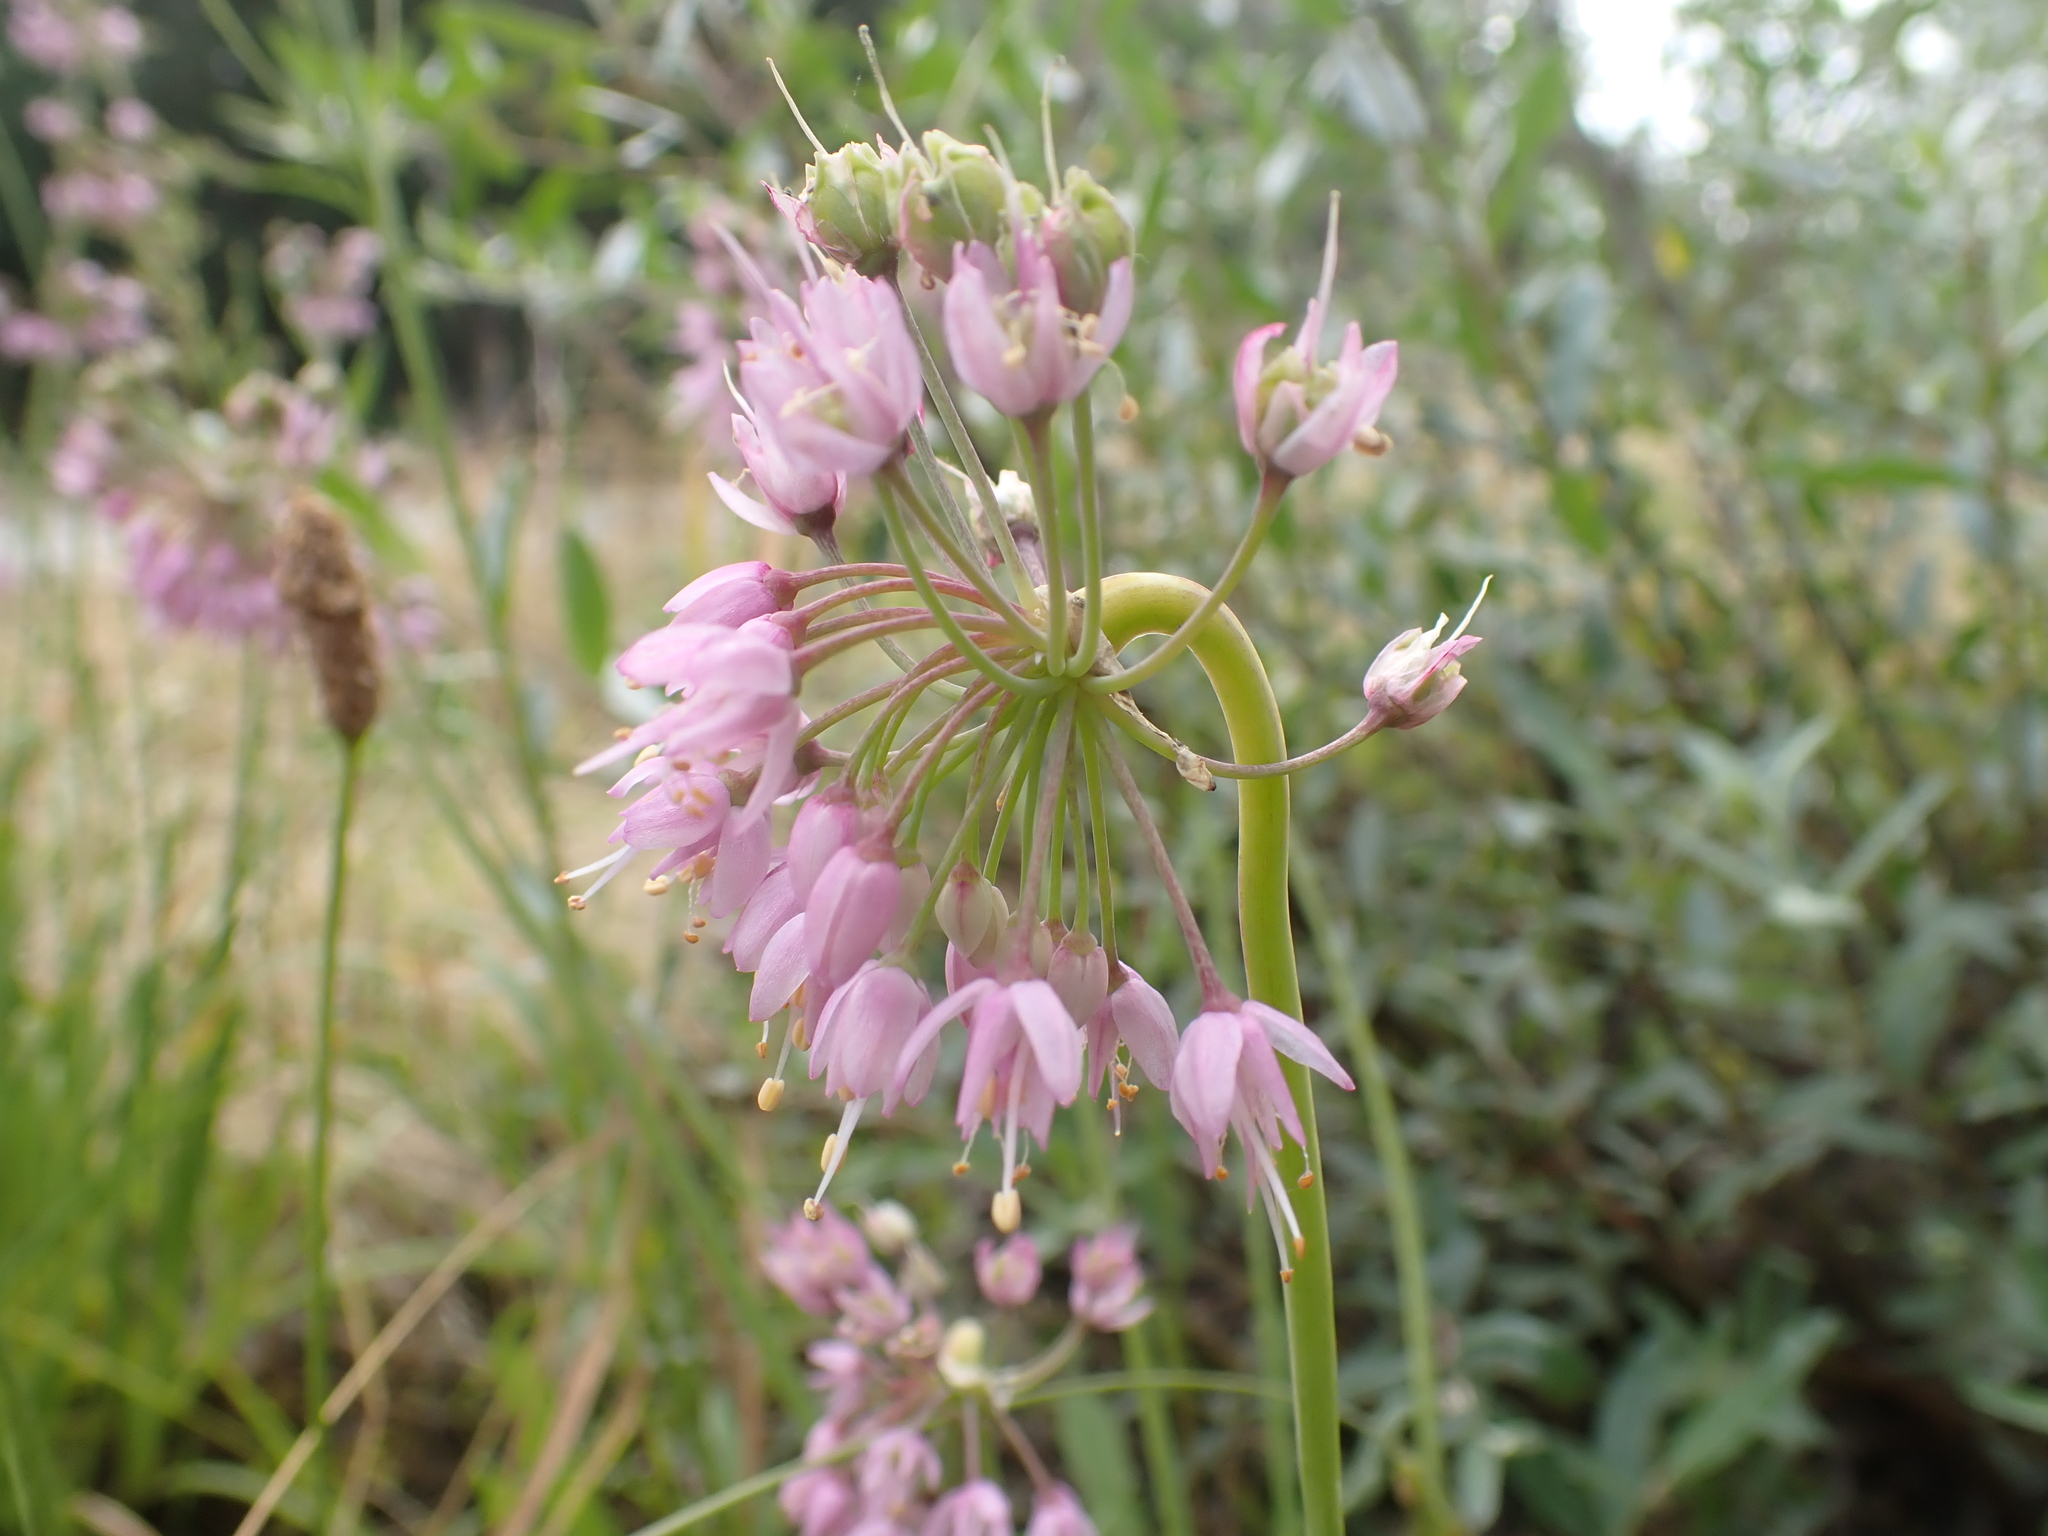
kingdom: Plantae
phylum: Tracheophyta
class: Liliopsida
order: Asparagales
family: Amaryllidaceae
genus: Allium
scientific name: Allium cernuum
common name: Nodding onion
